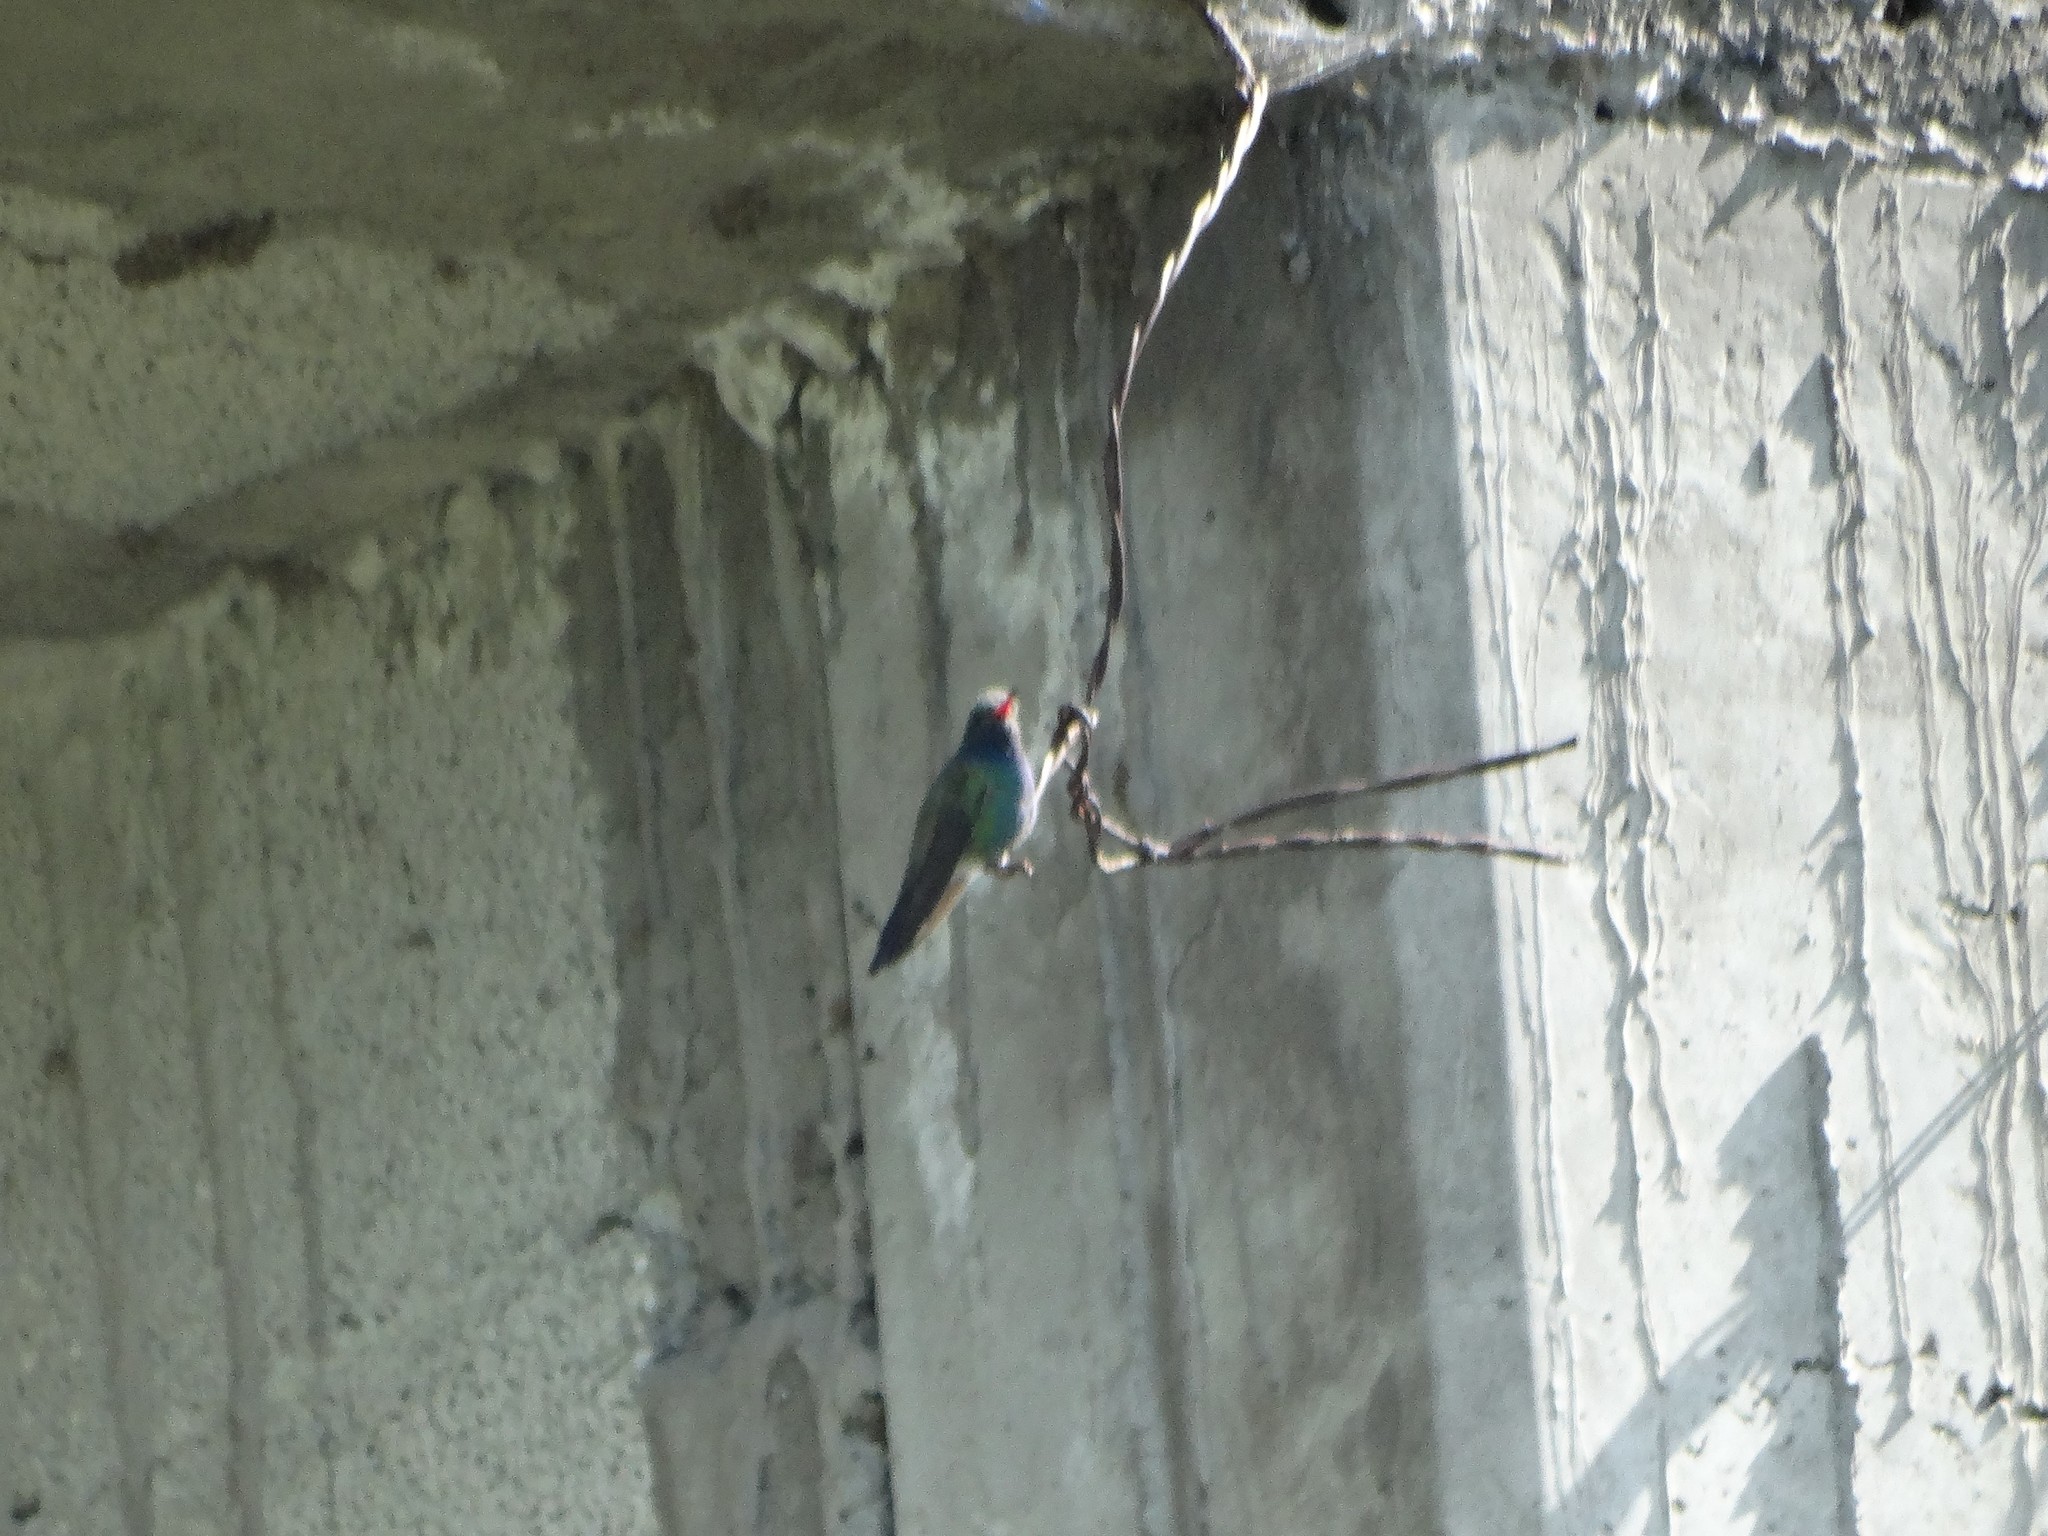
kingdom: Animalia
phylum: Chordata
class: Aves
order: Apodiformes
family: Trochilidae
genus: Cynanthus
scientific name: Cynanthus latirostris
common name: Broad-billed hummingbird
